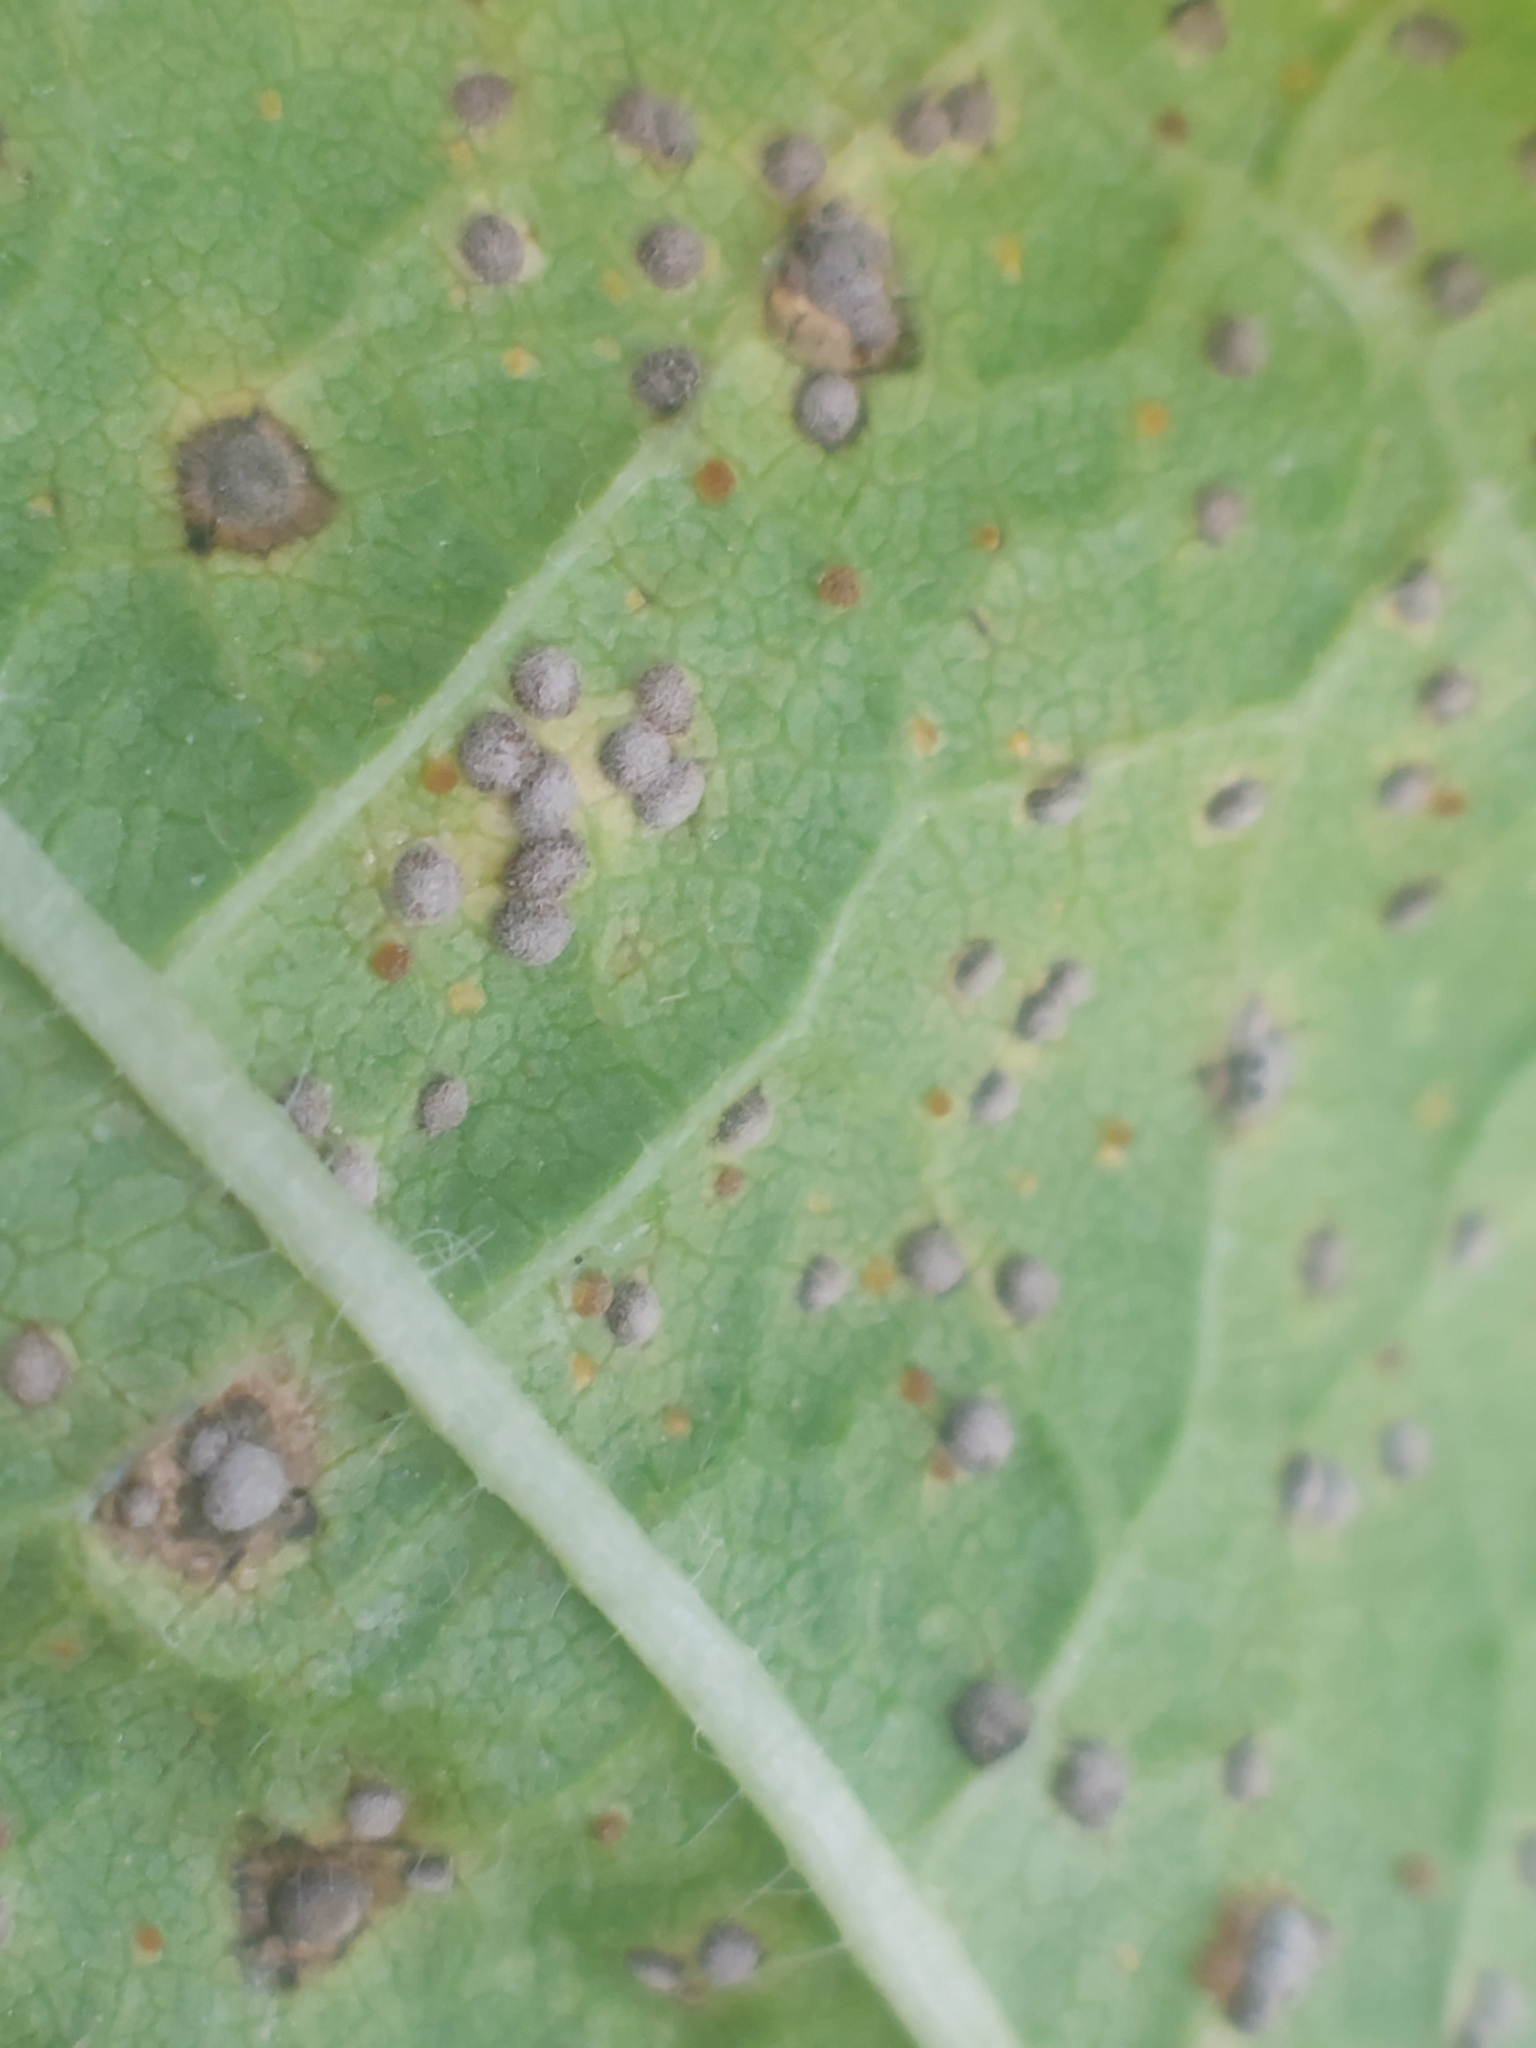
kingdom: Fungi
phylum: Basidiomycota
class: Pucciniomycetes
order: Pucciniales
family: Pucciniaceae
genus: Puccinia
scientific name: Puccinia malvacearum
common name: Hollyhock rust
